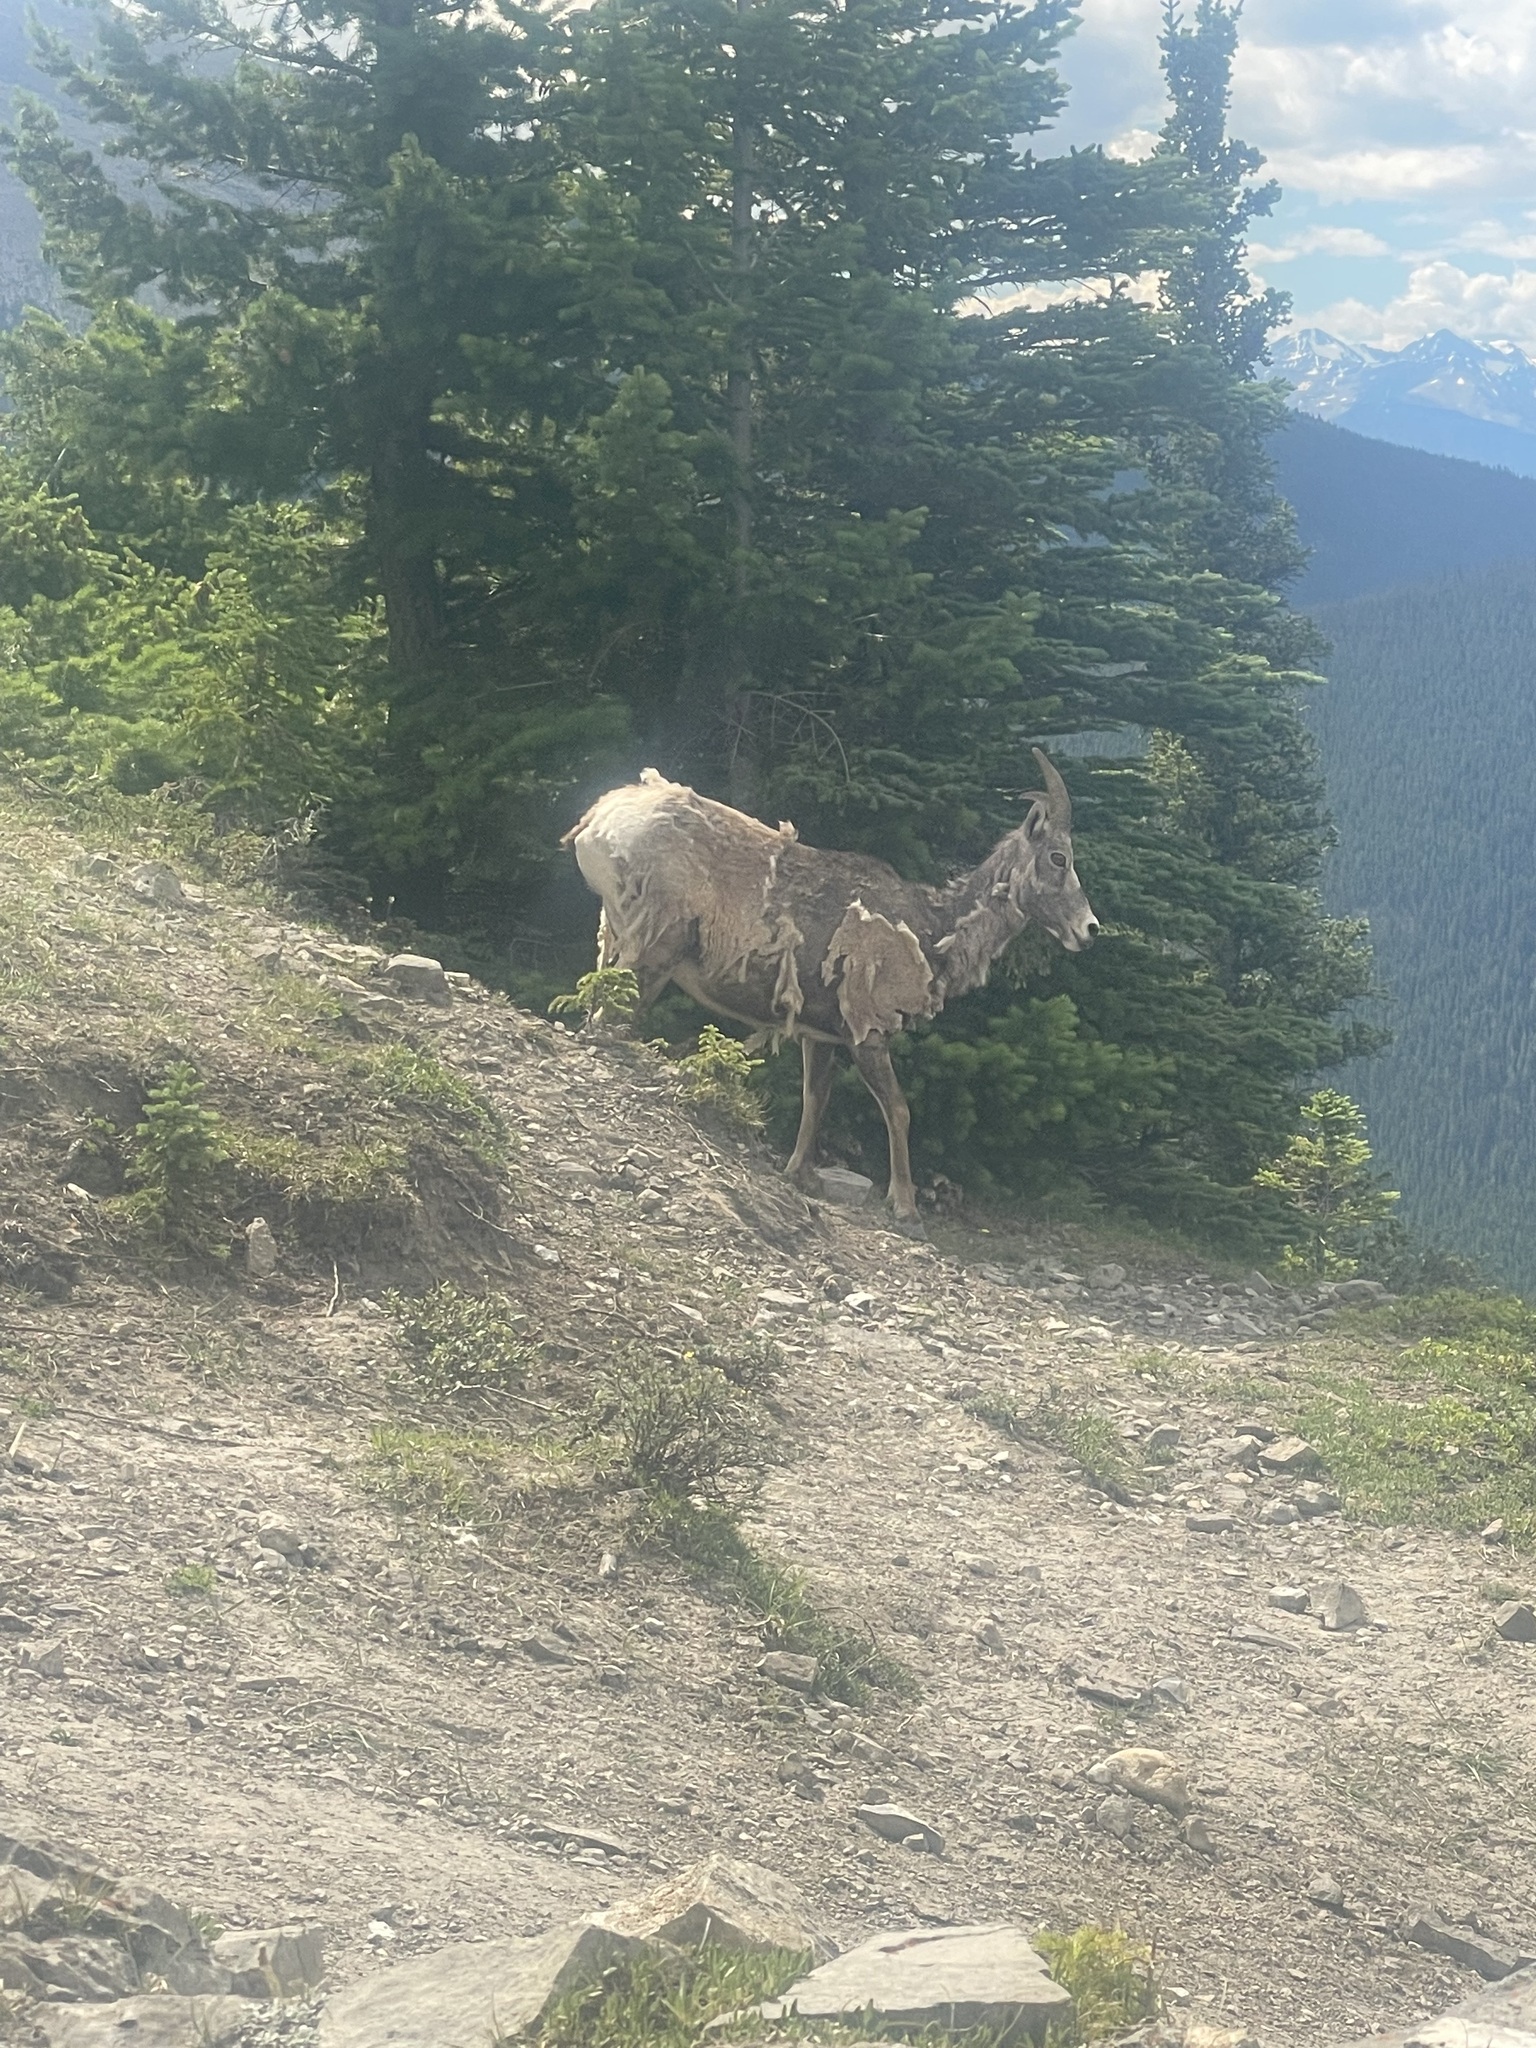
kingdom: Animalia
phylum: Chordata
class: Mammalia
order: Artiodactyla
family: Bovidae
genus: Ovis
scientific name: Ovis canadensis
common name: Bighorn sheep
